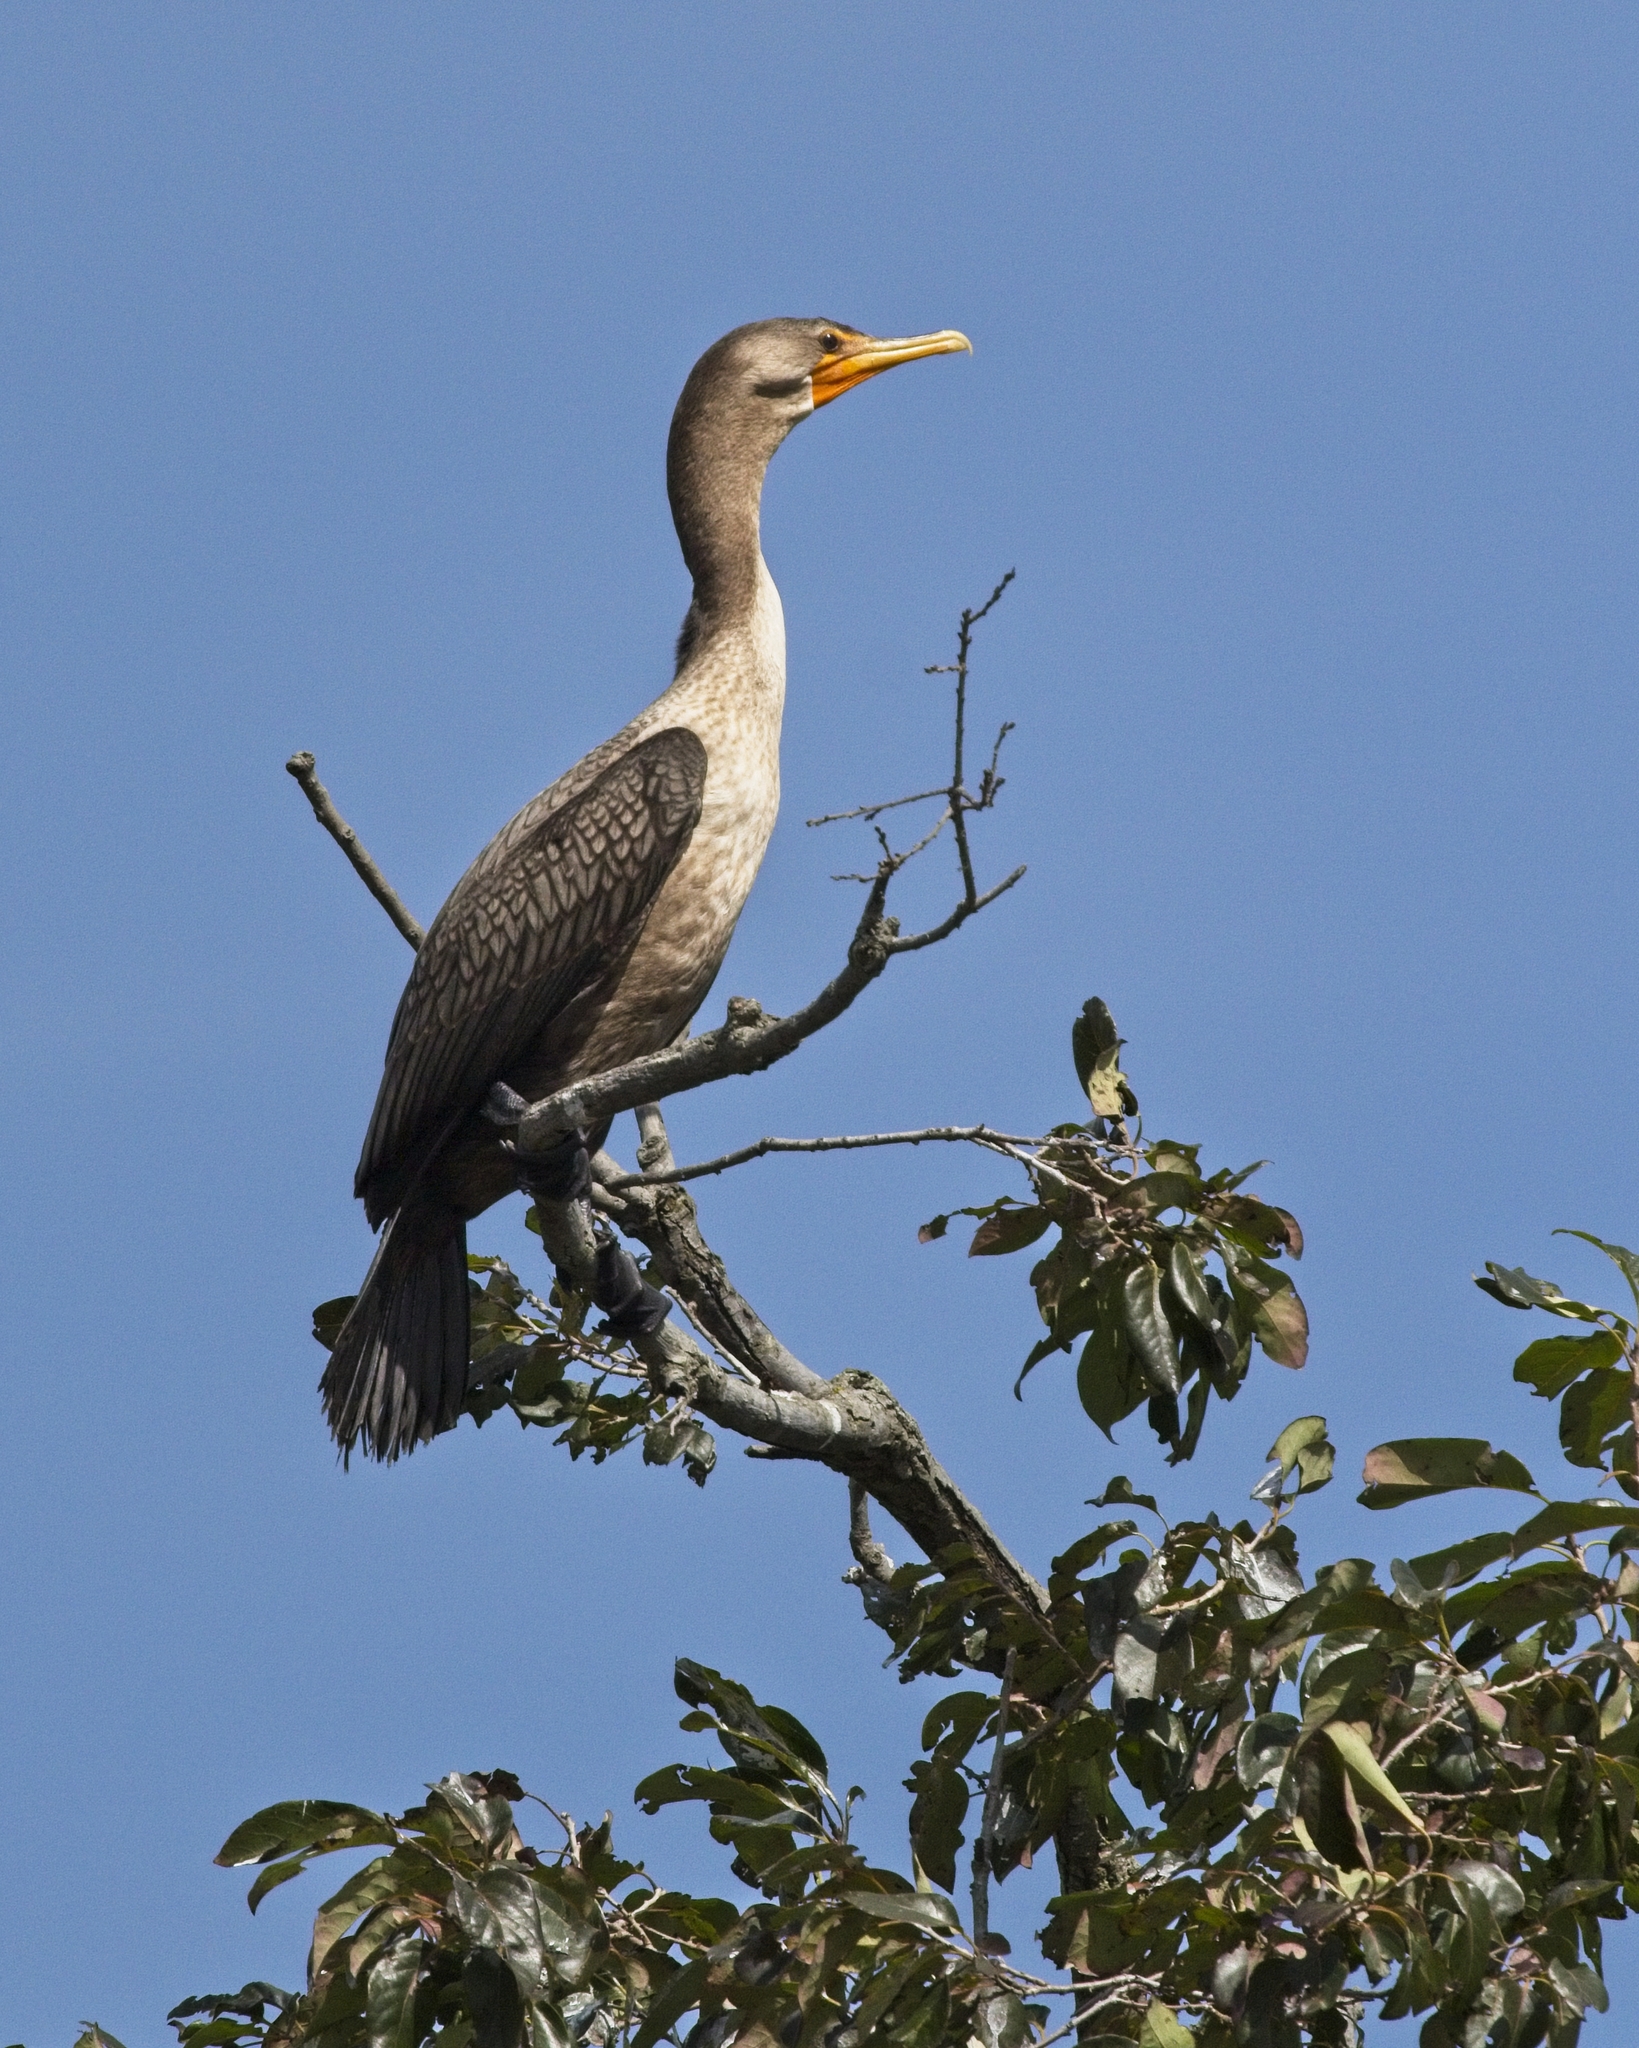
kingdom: Animalia
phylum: Chordata
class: Aves
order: Suliformes
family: Phalacrocoracidae
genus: Phalacrocorax
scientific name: Phalacrocorax auritus
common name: Double-crested cormorant
